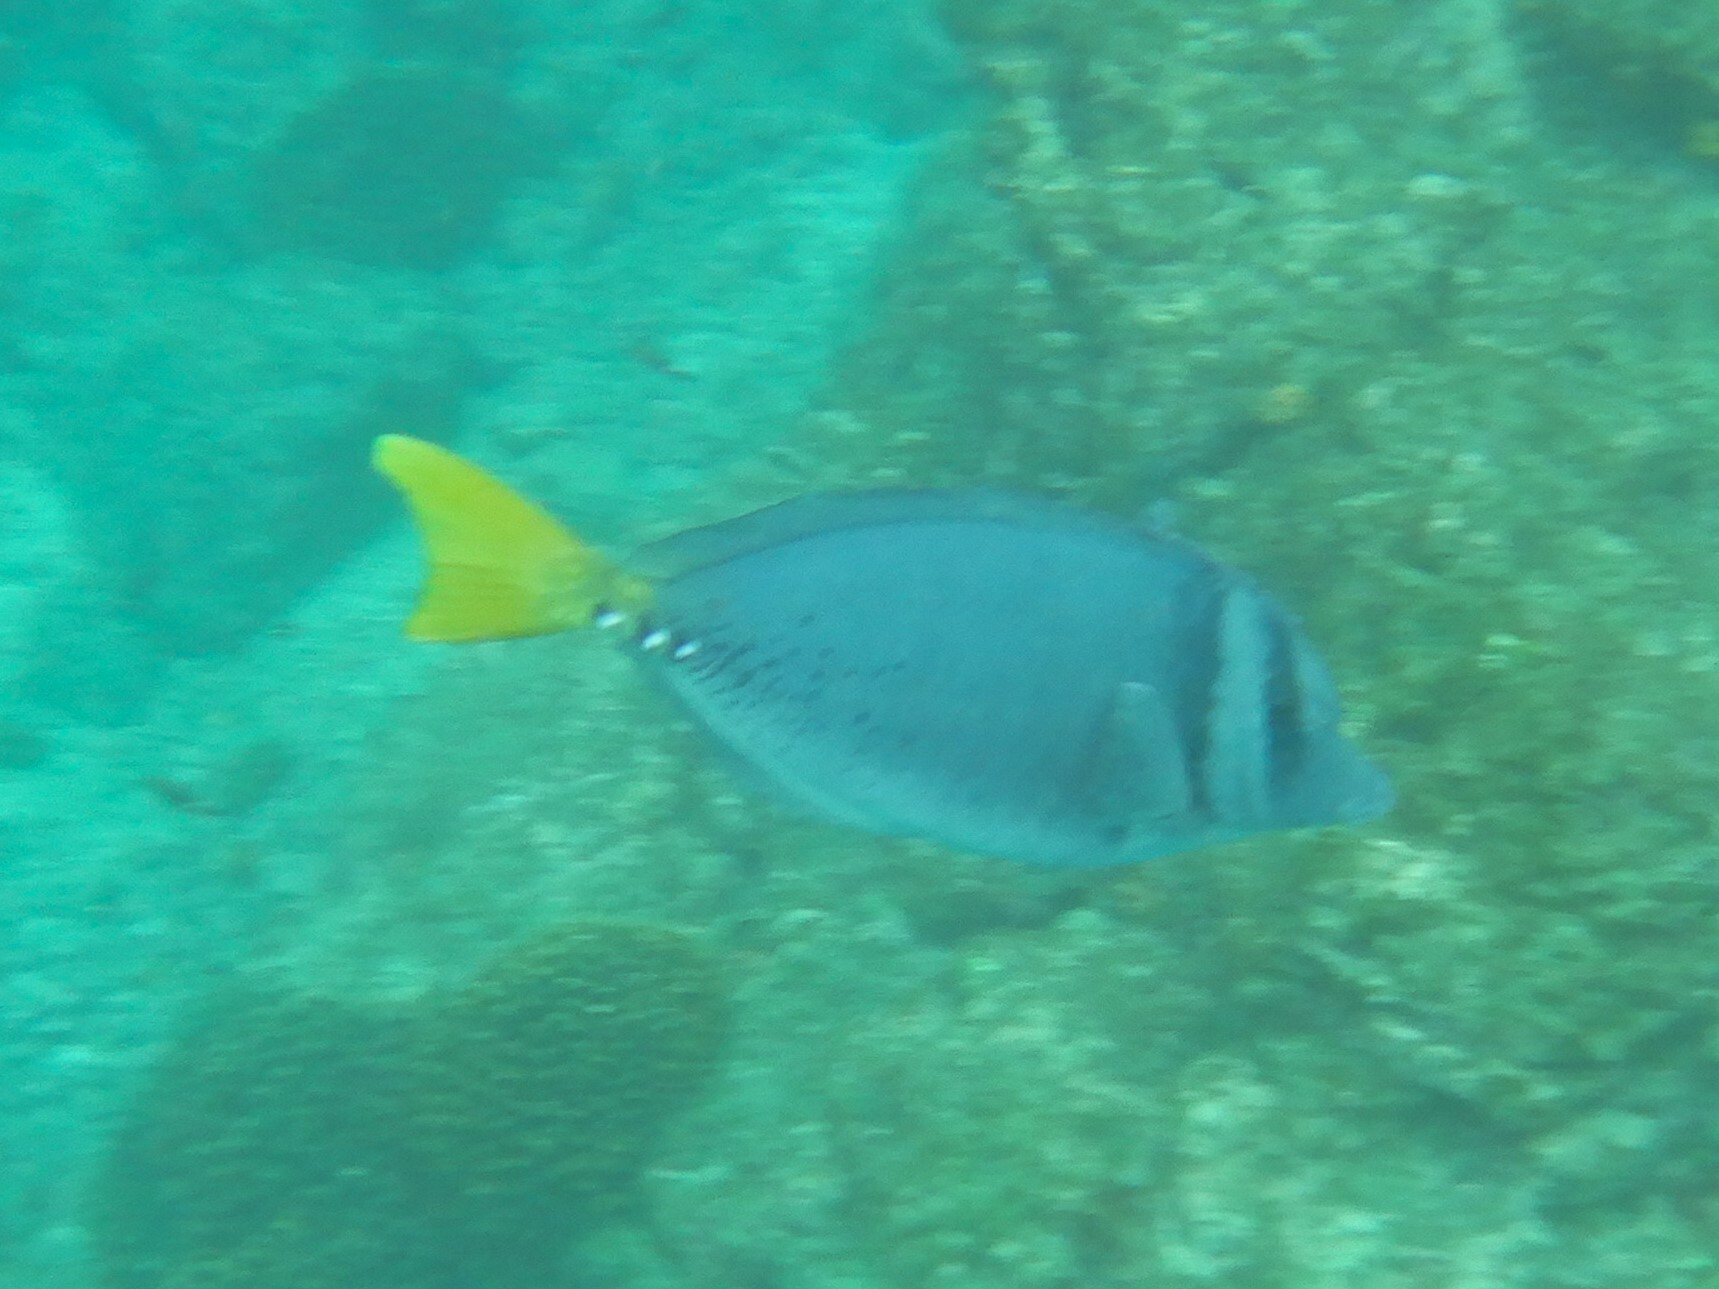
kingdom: Animalia
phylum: Chordata
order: Perciformes
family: Acanthuridae
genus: Prionurus
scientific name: Prionurus laticlavius
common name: Razor surgeonfish
